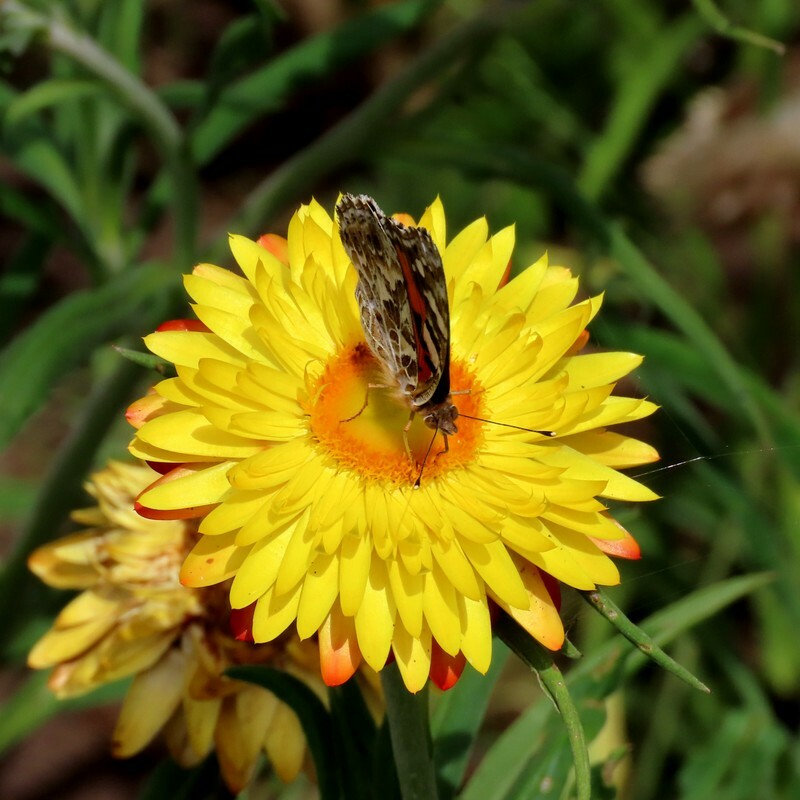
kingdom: Animalia
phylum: Arthropoda
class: Insecta
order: Lepidoptera
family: Nymphalidae
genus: Vanessa
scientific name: Vanessa kershawi
